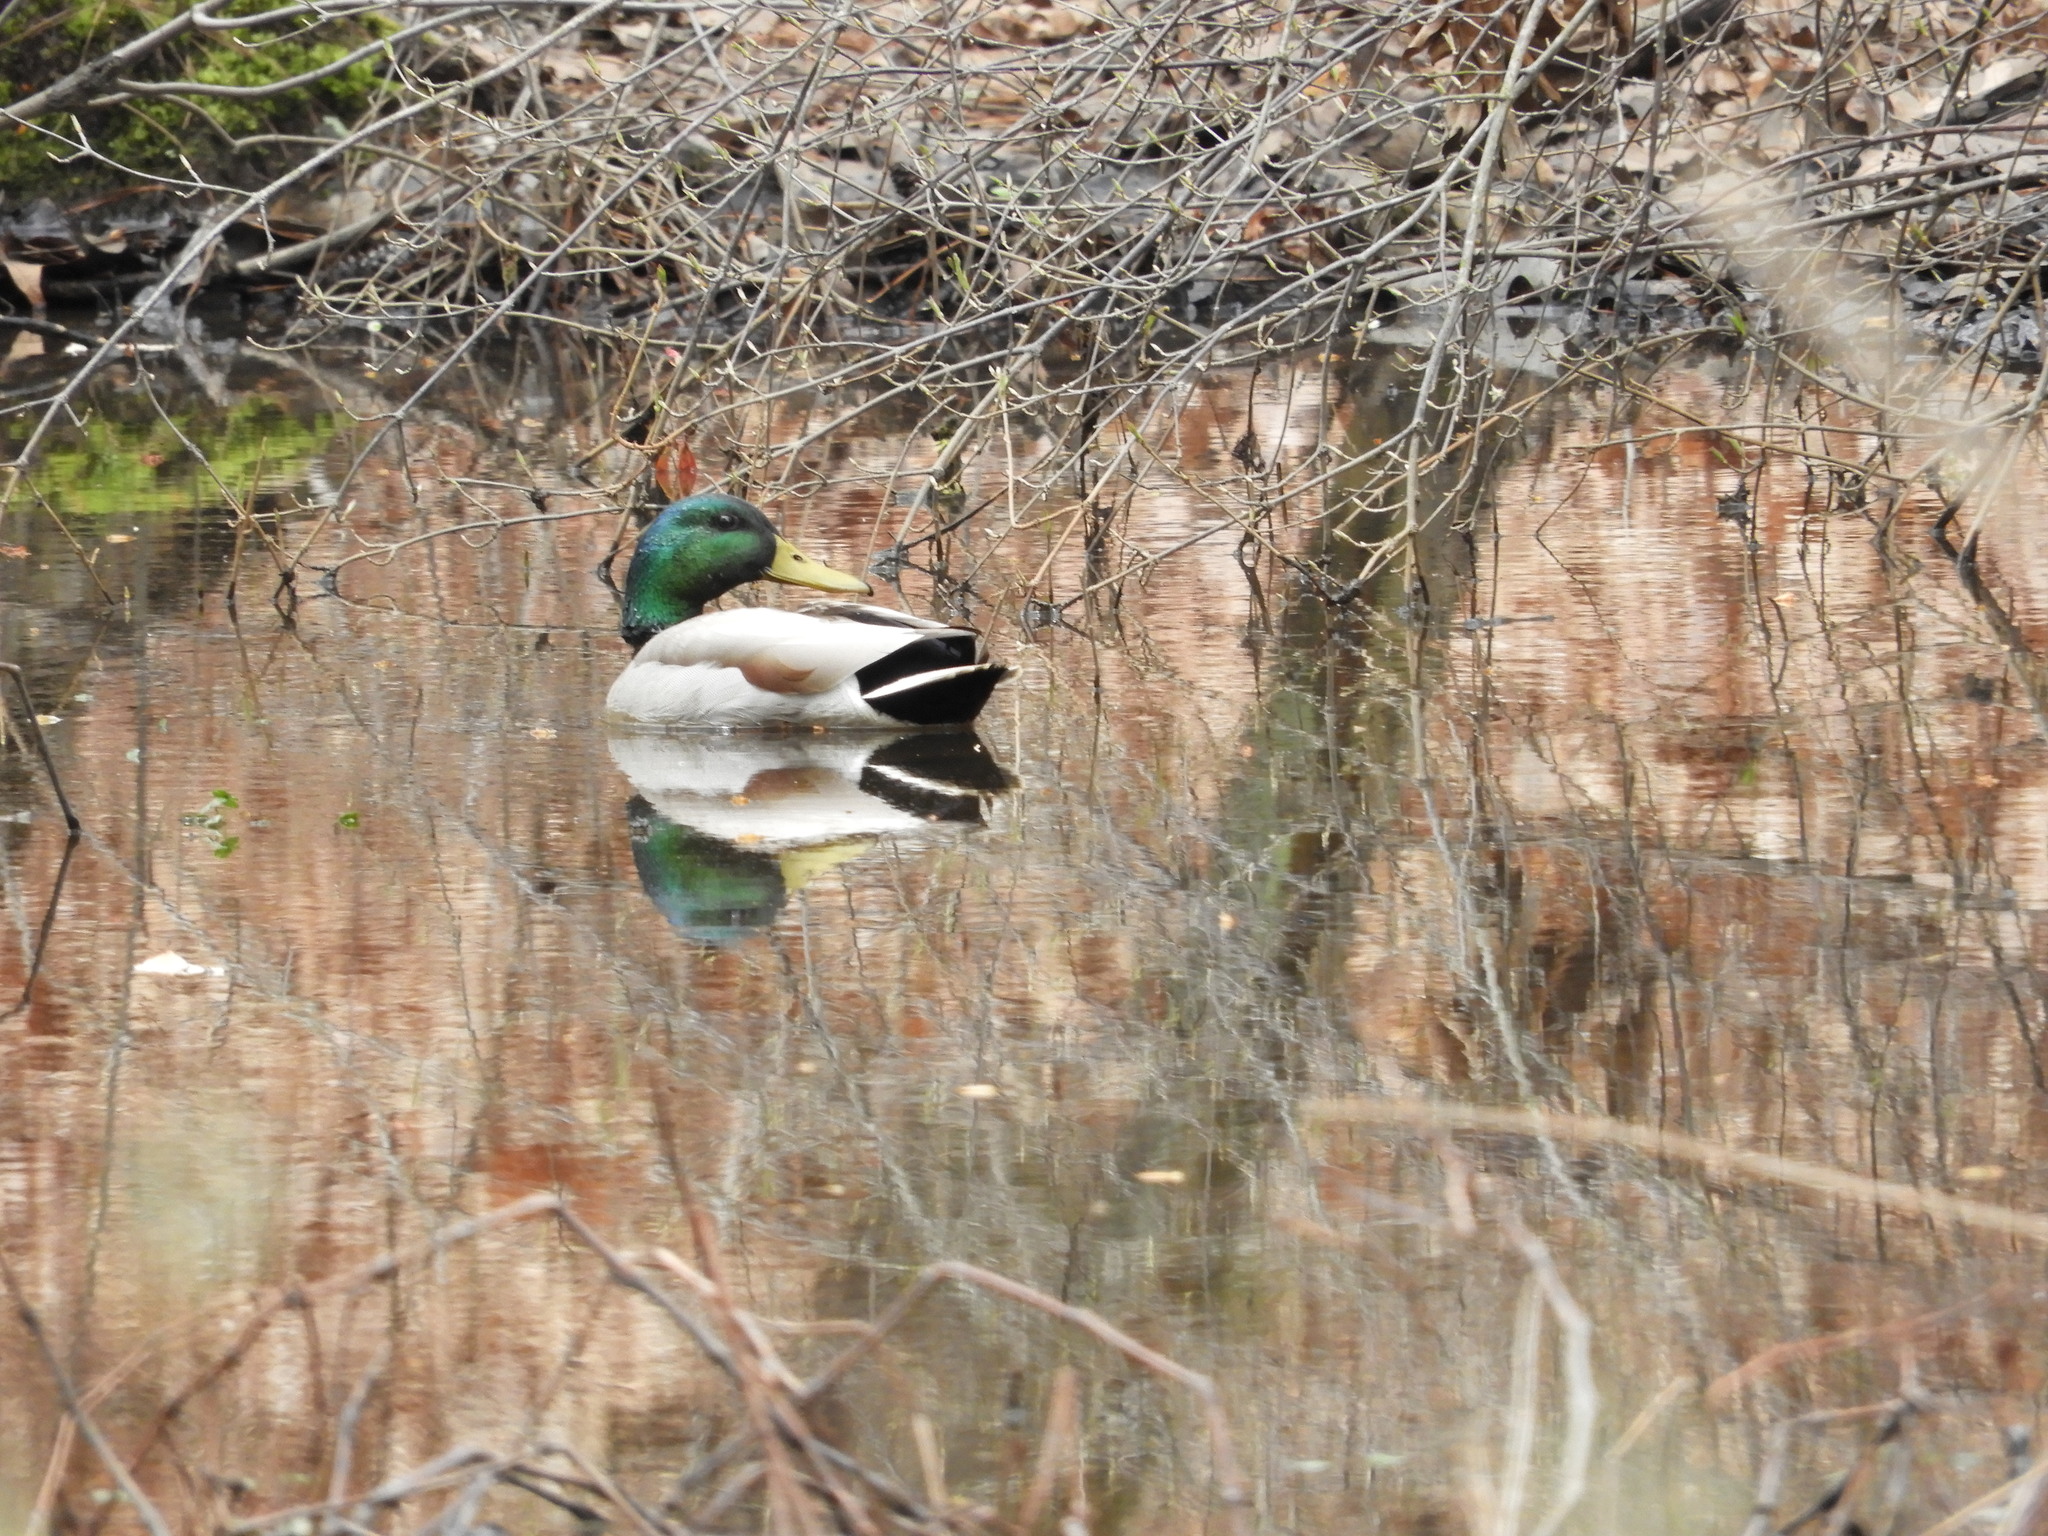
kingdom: Animalia
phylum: Chordata
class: Aves
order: Anseriformes
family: Anatidae
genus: Anas
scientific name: Anas platyrhynchos
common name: Mallard
